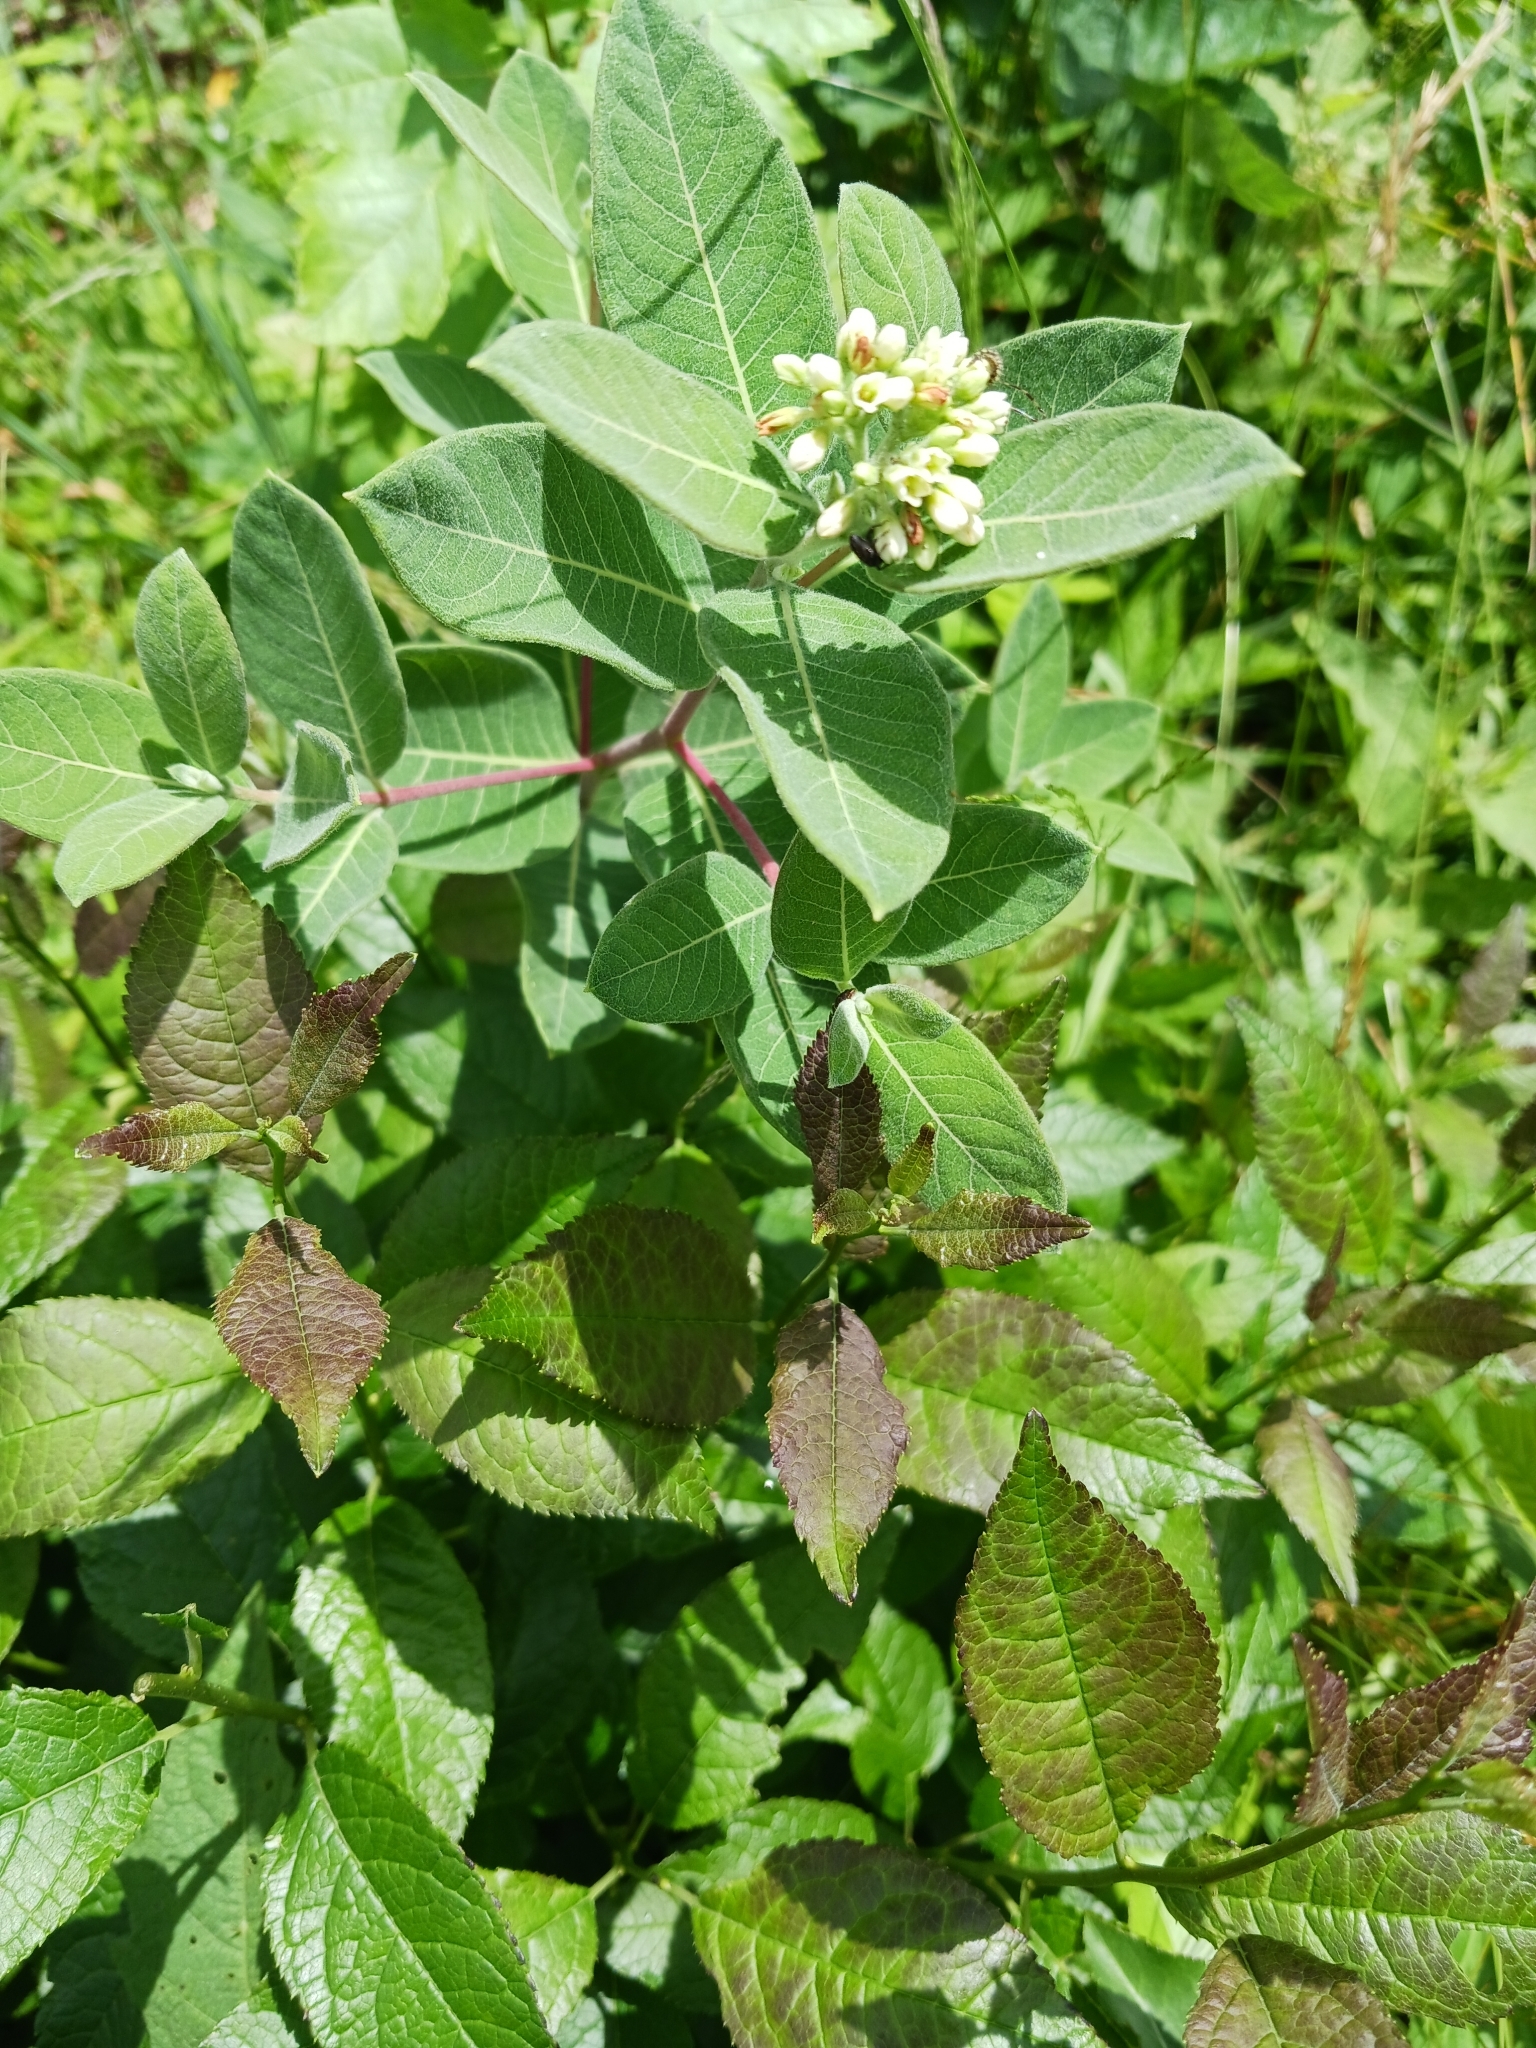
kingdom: Plantae
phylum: Tracheophyta
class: Magnoliopsida
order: Gentianales
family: Apocynaceae
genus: Apocynum
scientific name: Apocynum cannabinum
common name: Hemp dogbane
